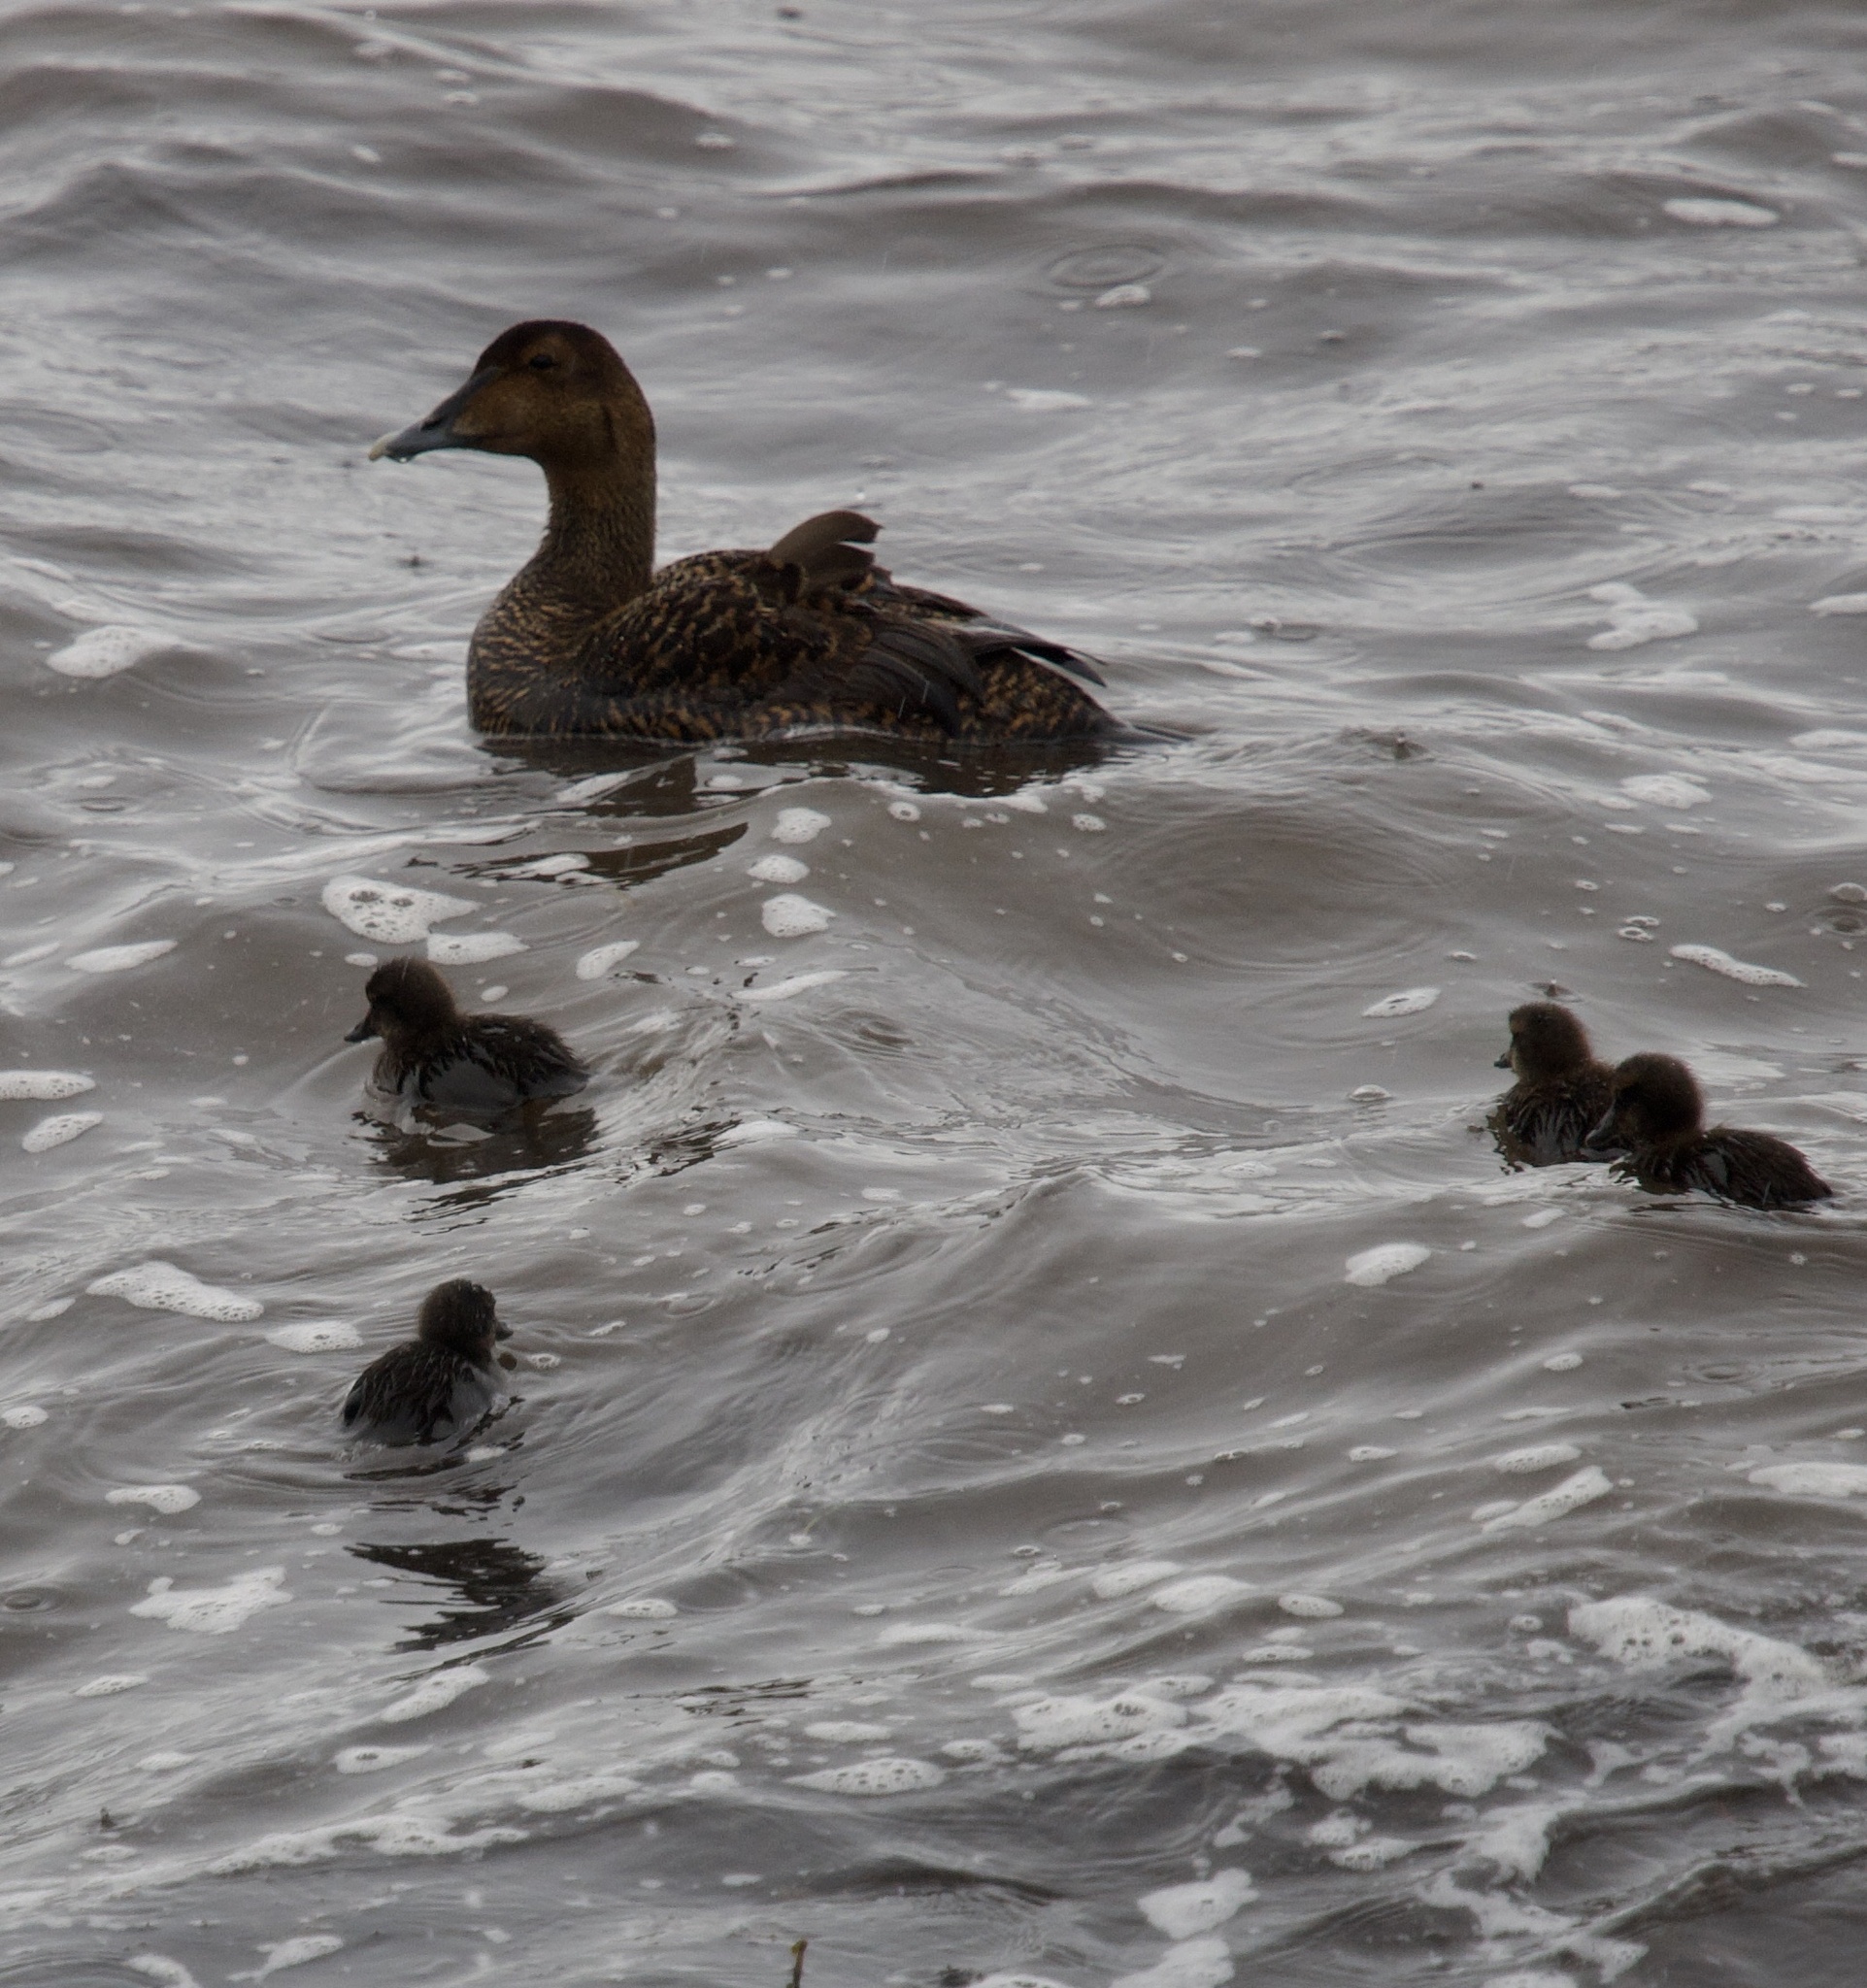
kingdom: Animalia
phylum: Chordata
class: Aves
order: Anseriformes
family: Anatidae
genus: Somateria
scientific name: Somateria mollissima
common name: Common eider
